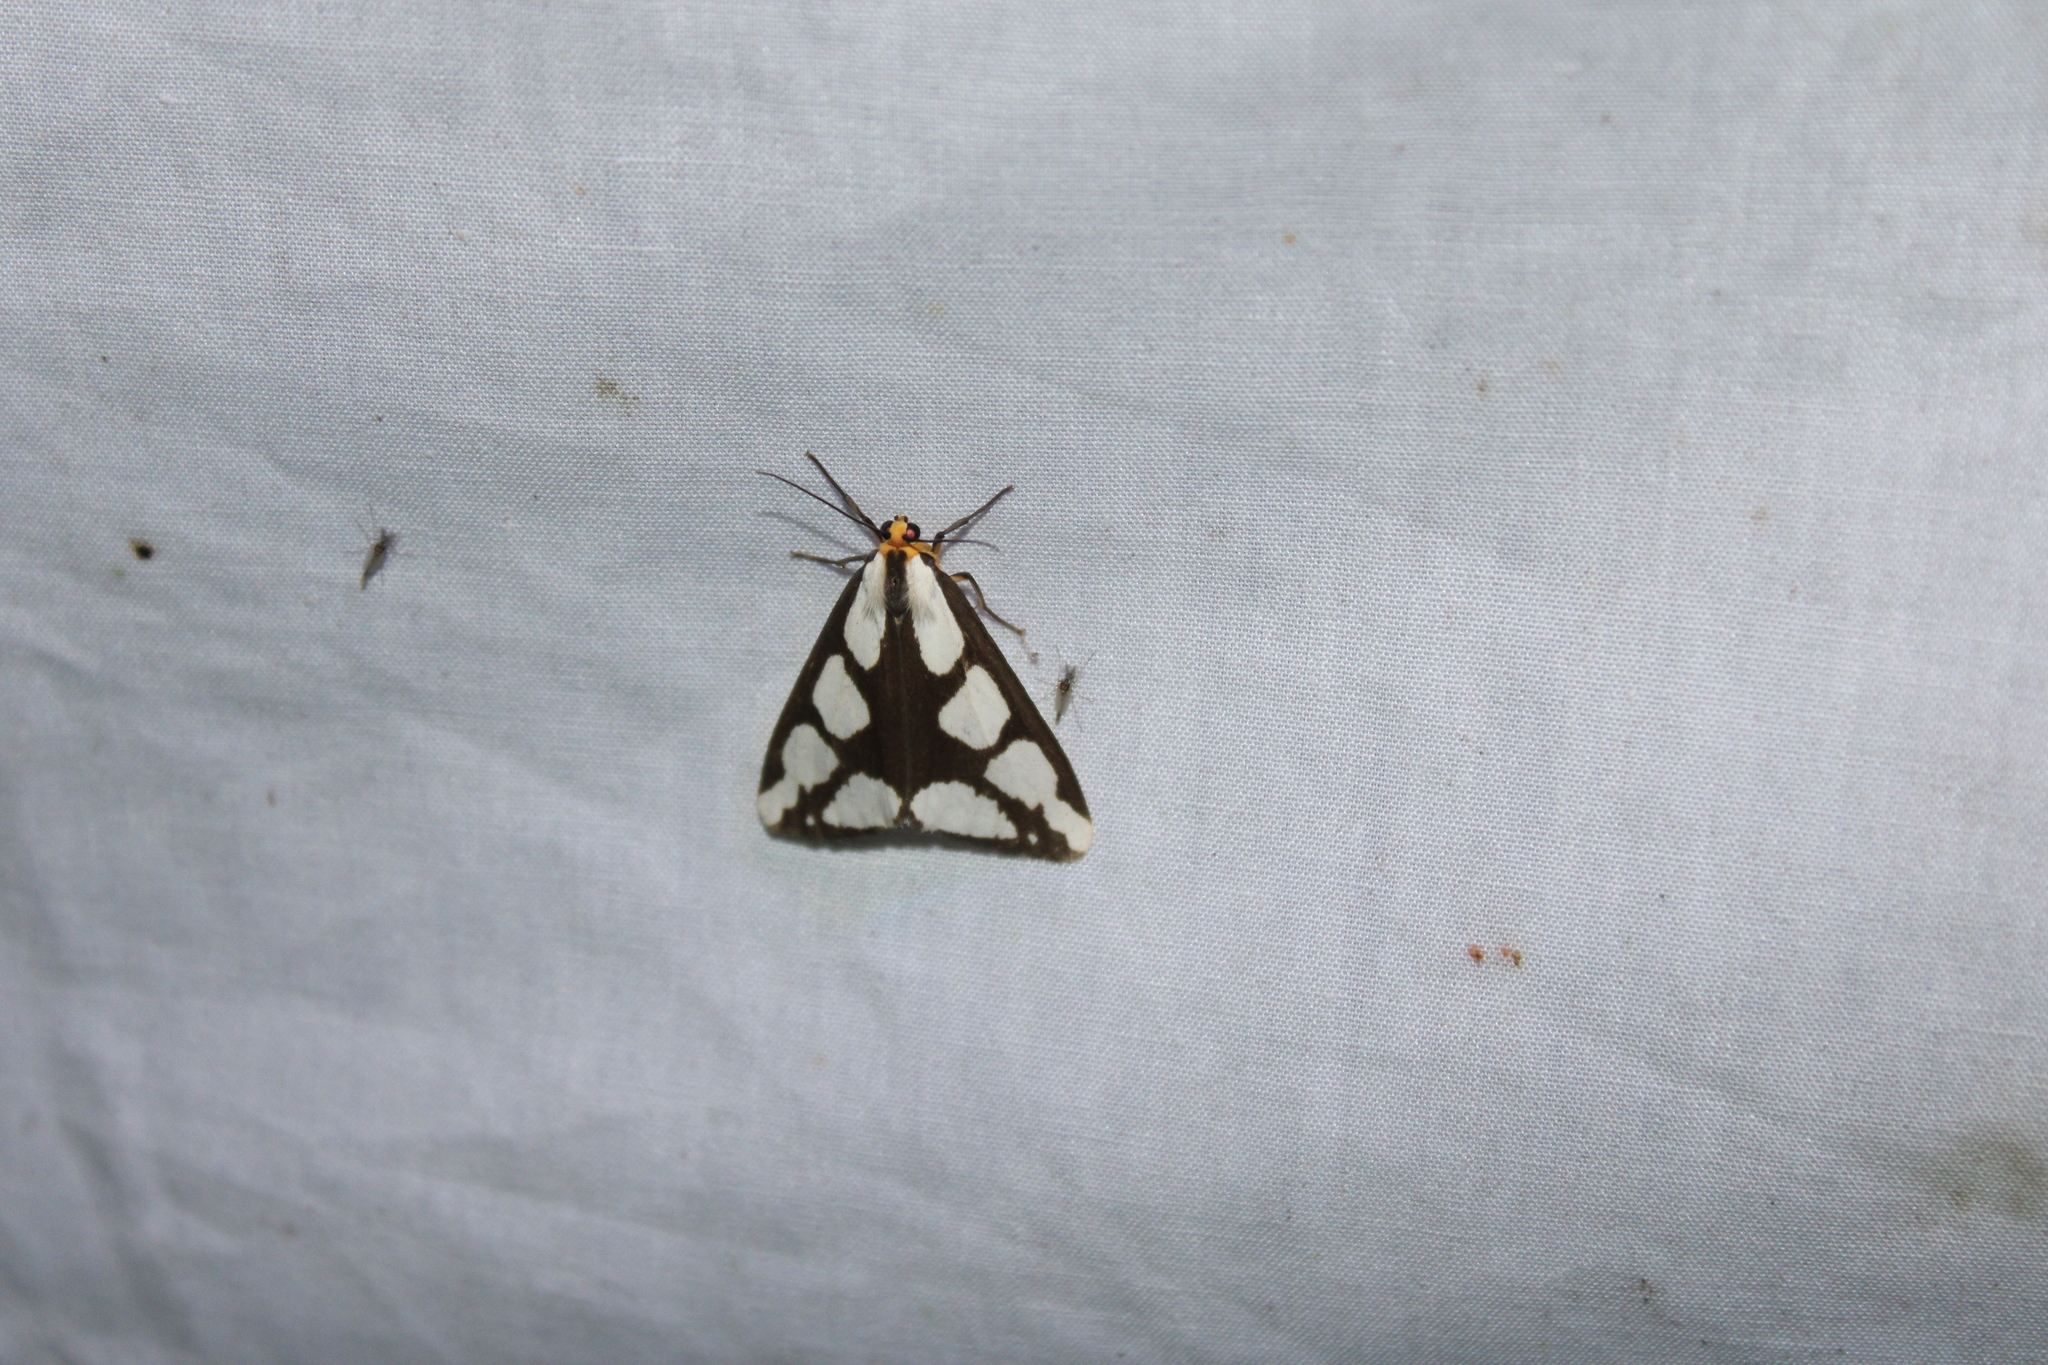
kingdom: Animalia
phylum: Arthropoda
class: Insecta
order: Lepidoptera
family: Erebidae
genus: Haploa
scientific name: Haploa lecontei
